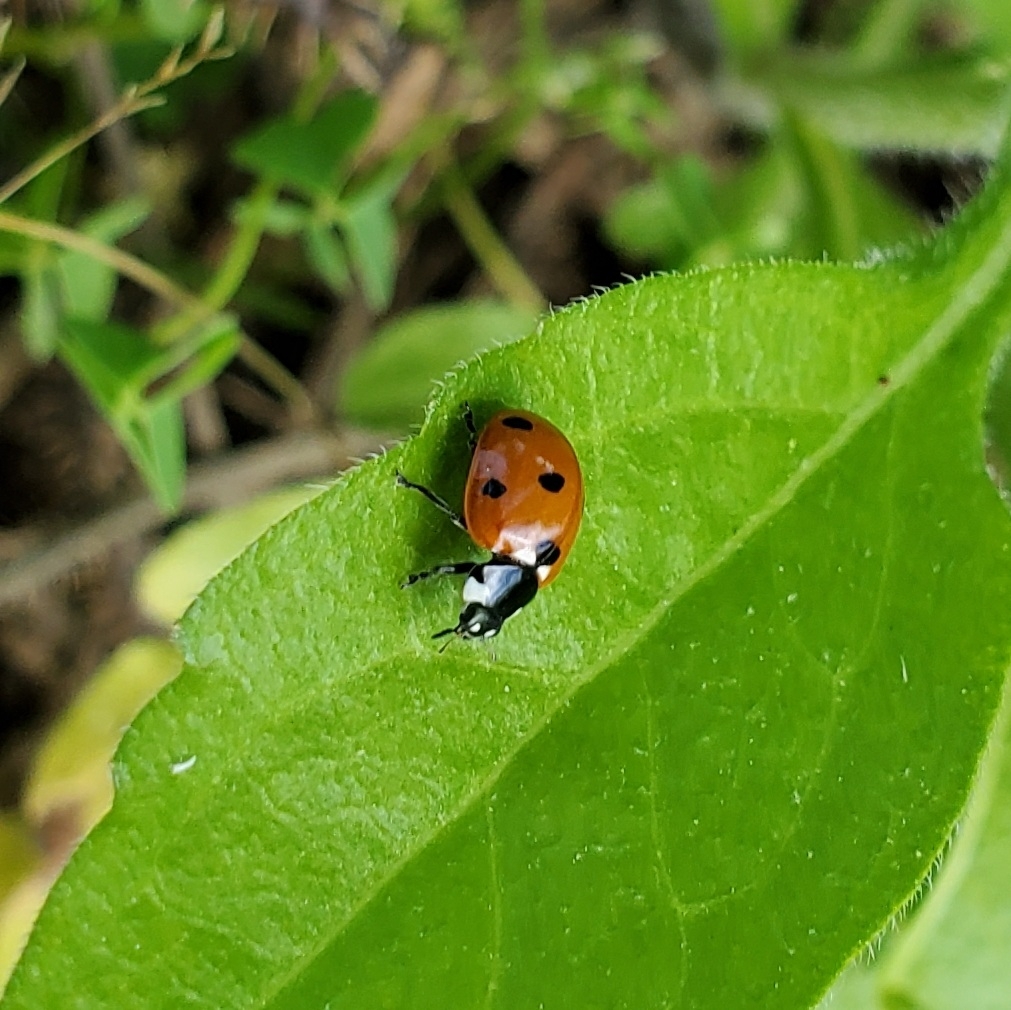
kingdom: Animalia
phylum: Arthropoda
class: Insecta
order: Coleoptera
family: Coccinellidae
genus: Coccinella
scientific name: Coccinella septempunctata
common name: Sevenspotted lady beetle
